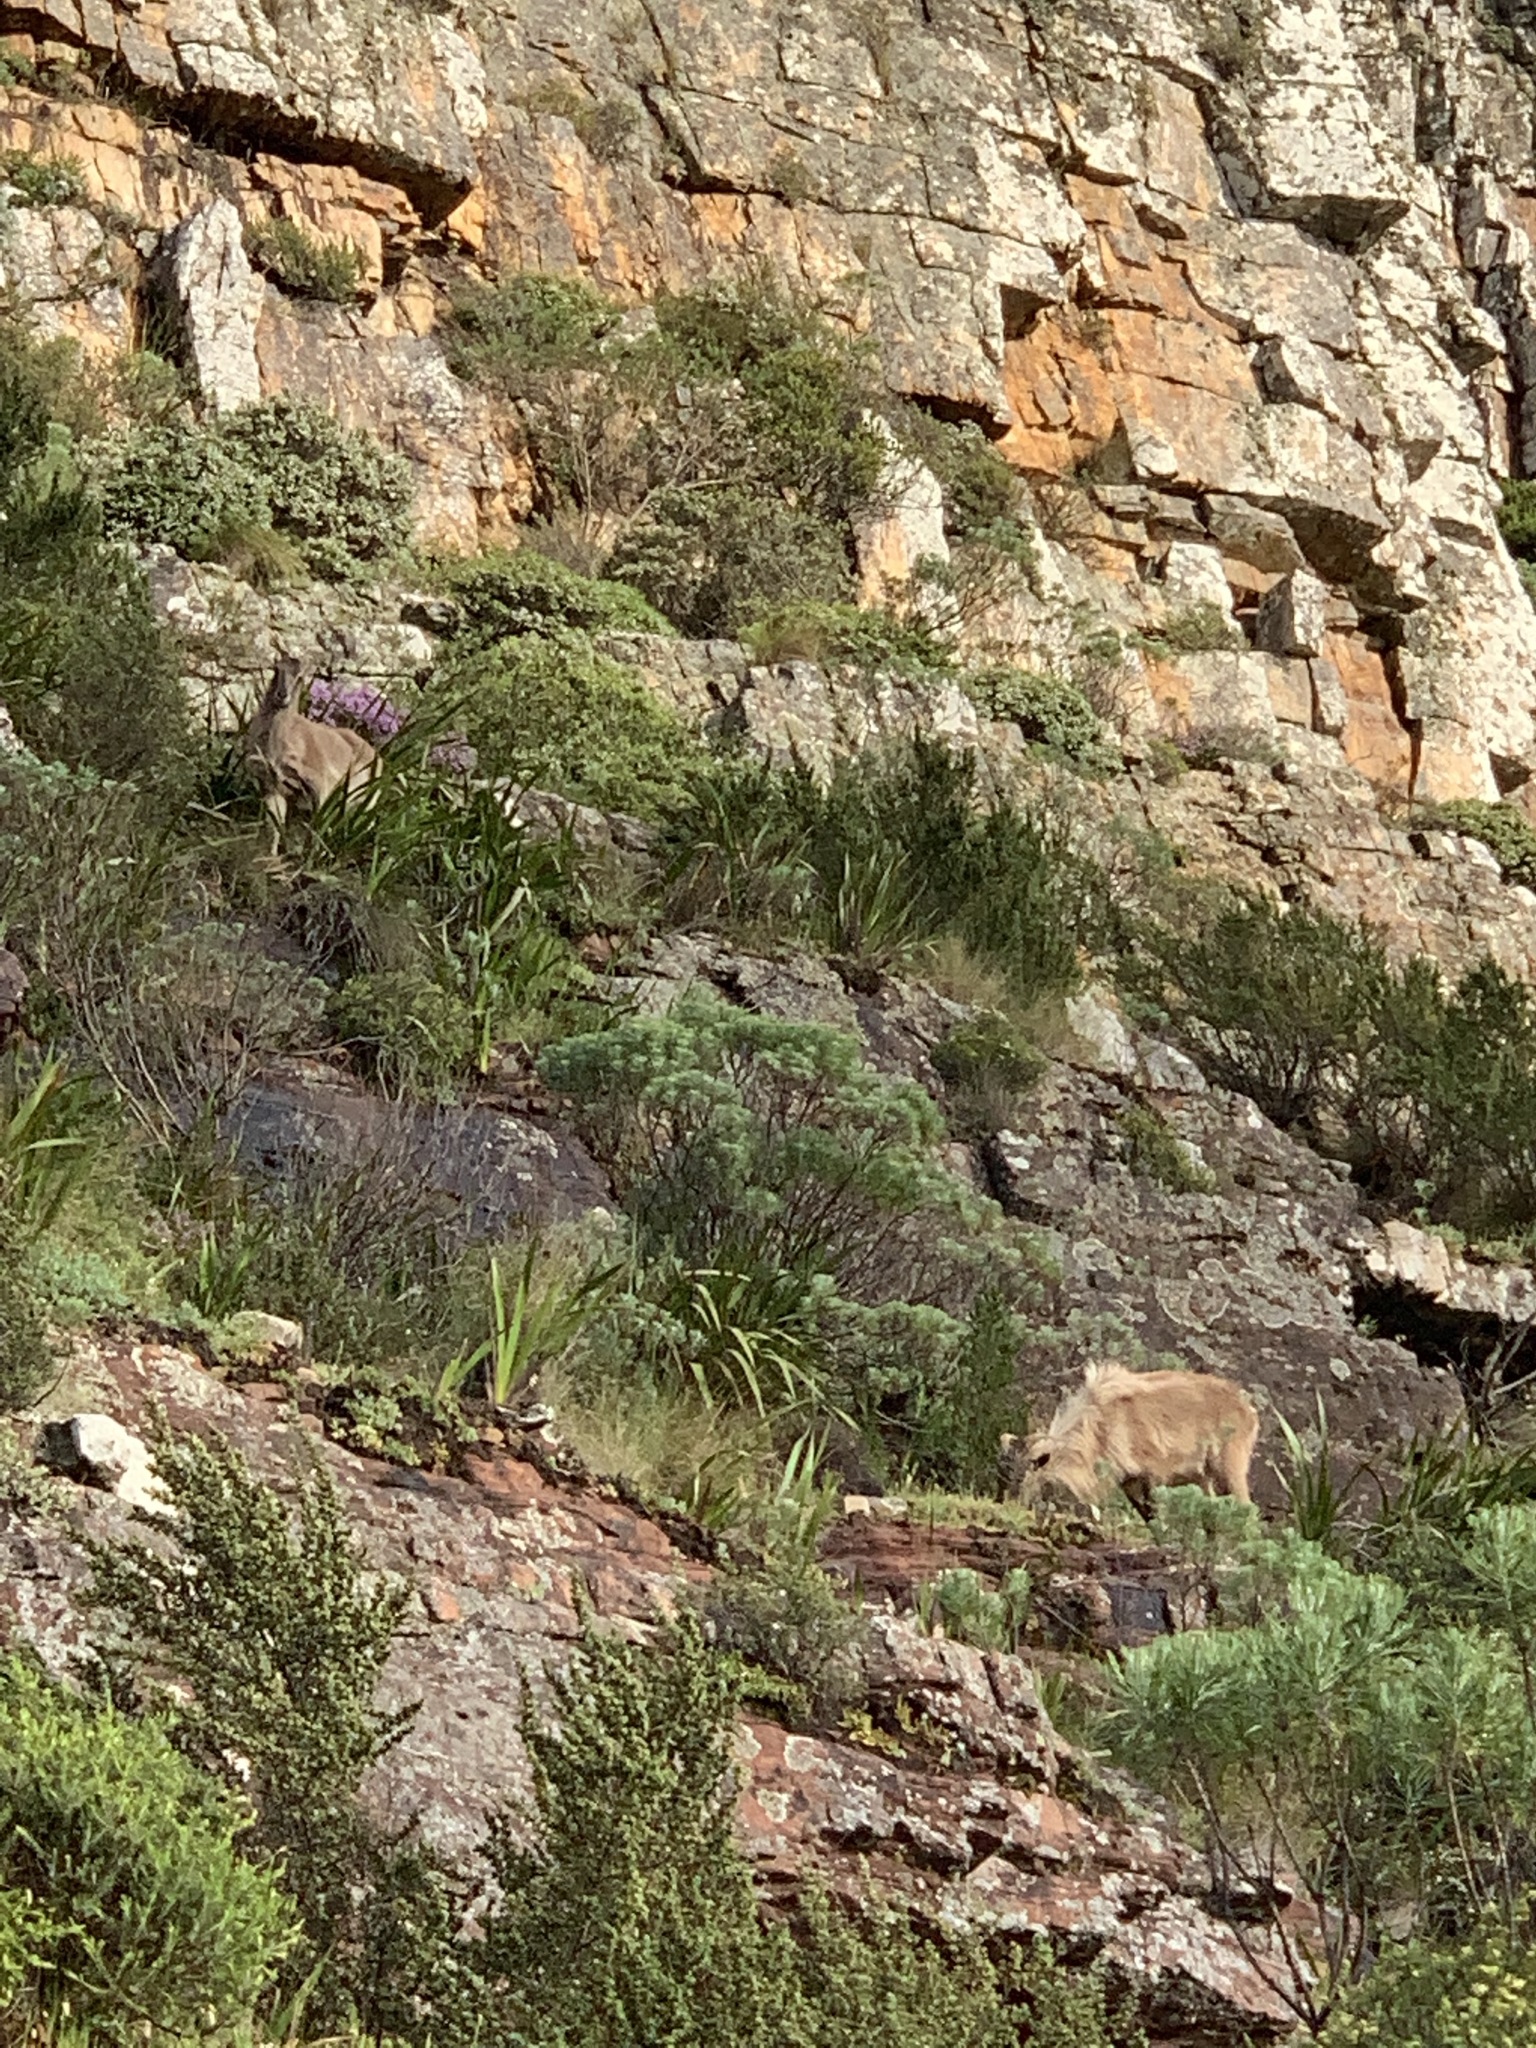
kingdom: Animalia
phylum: Chordata
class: Mammalia
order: Artiodactyla
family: Bovidae
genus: Hemitragus
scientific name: Hemitragus jemlahicus
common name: Himalayan tahr
